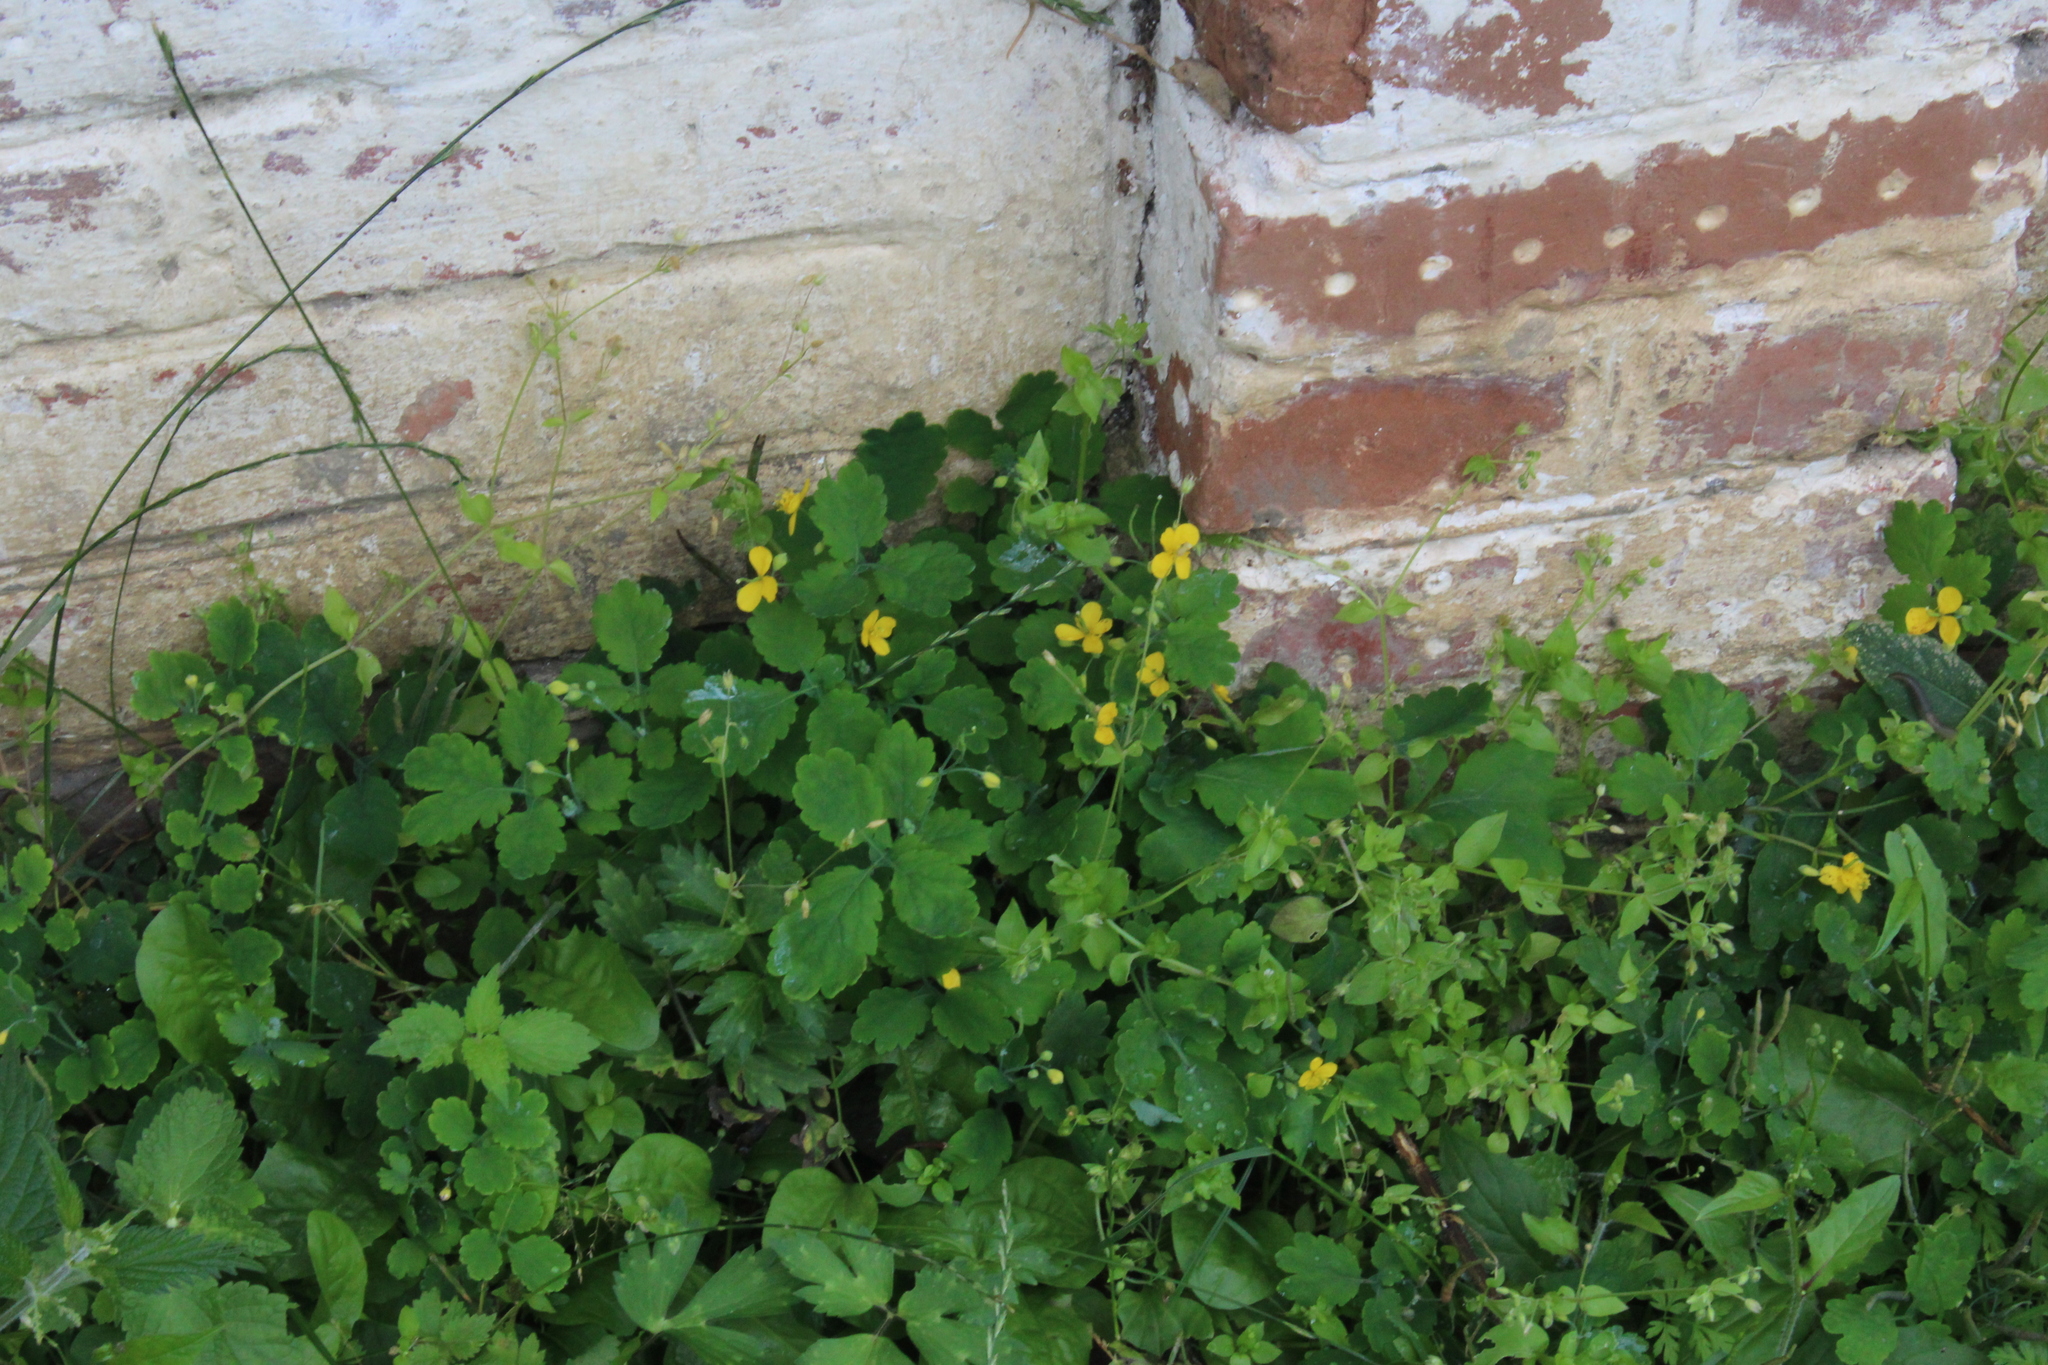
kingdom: Plantae
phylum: Tracheophyta
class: Magnoliopsida
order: Ranunculales
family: Papaveraceae
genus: Chelidonium
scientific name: Chelidonium majus
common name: Greater celandine
